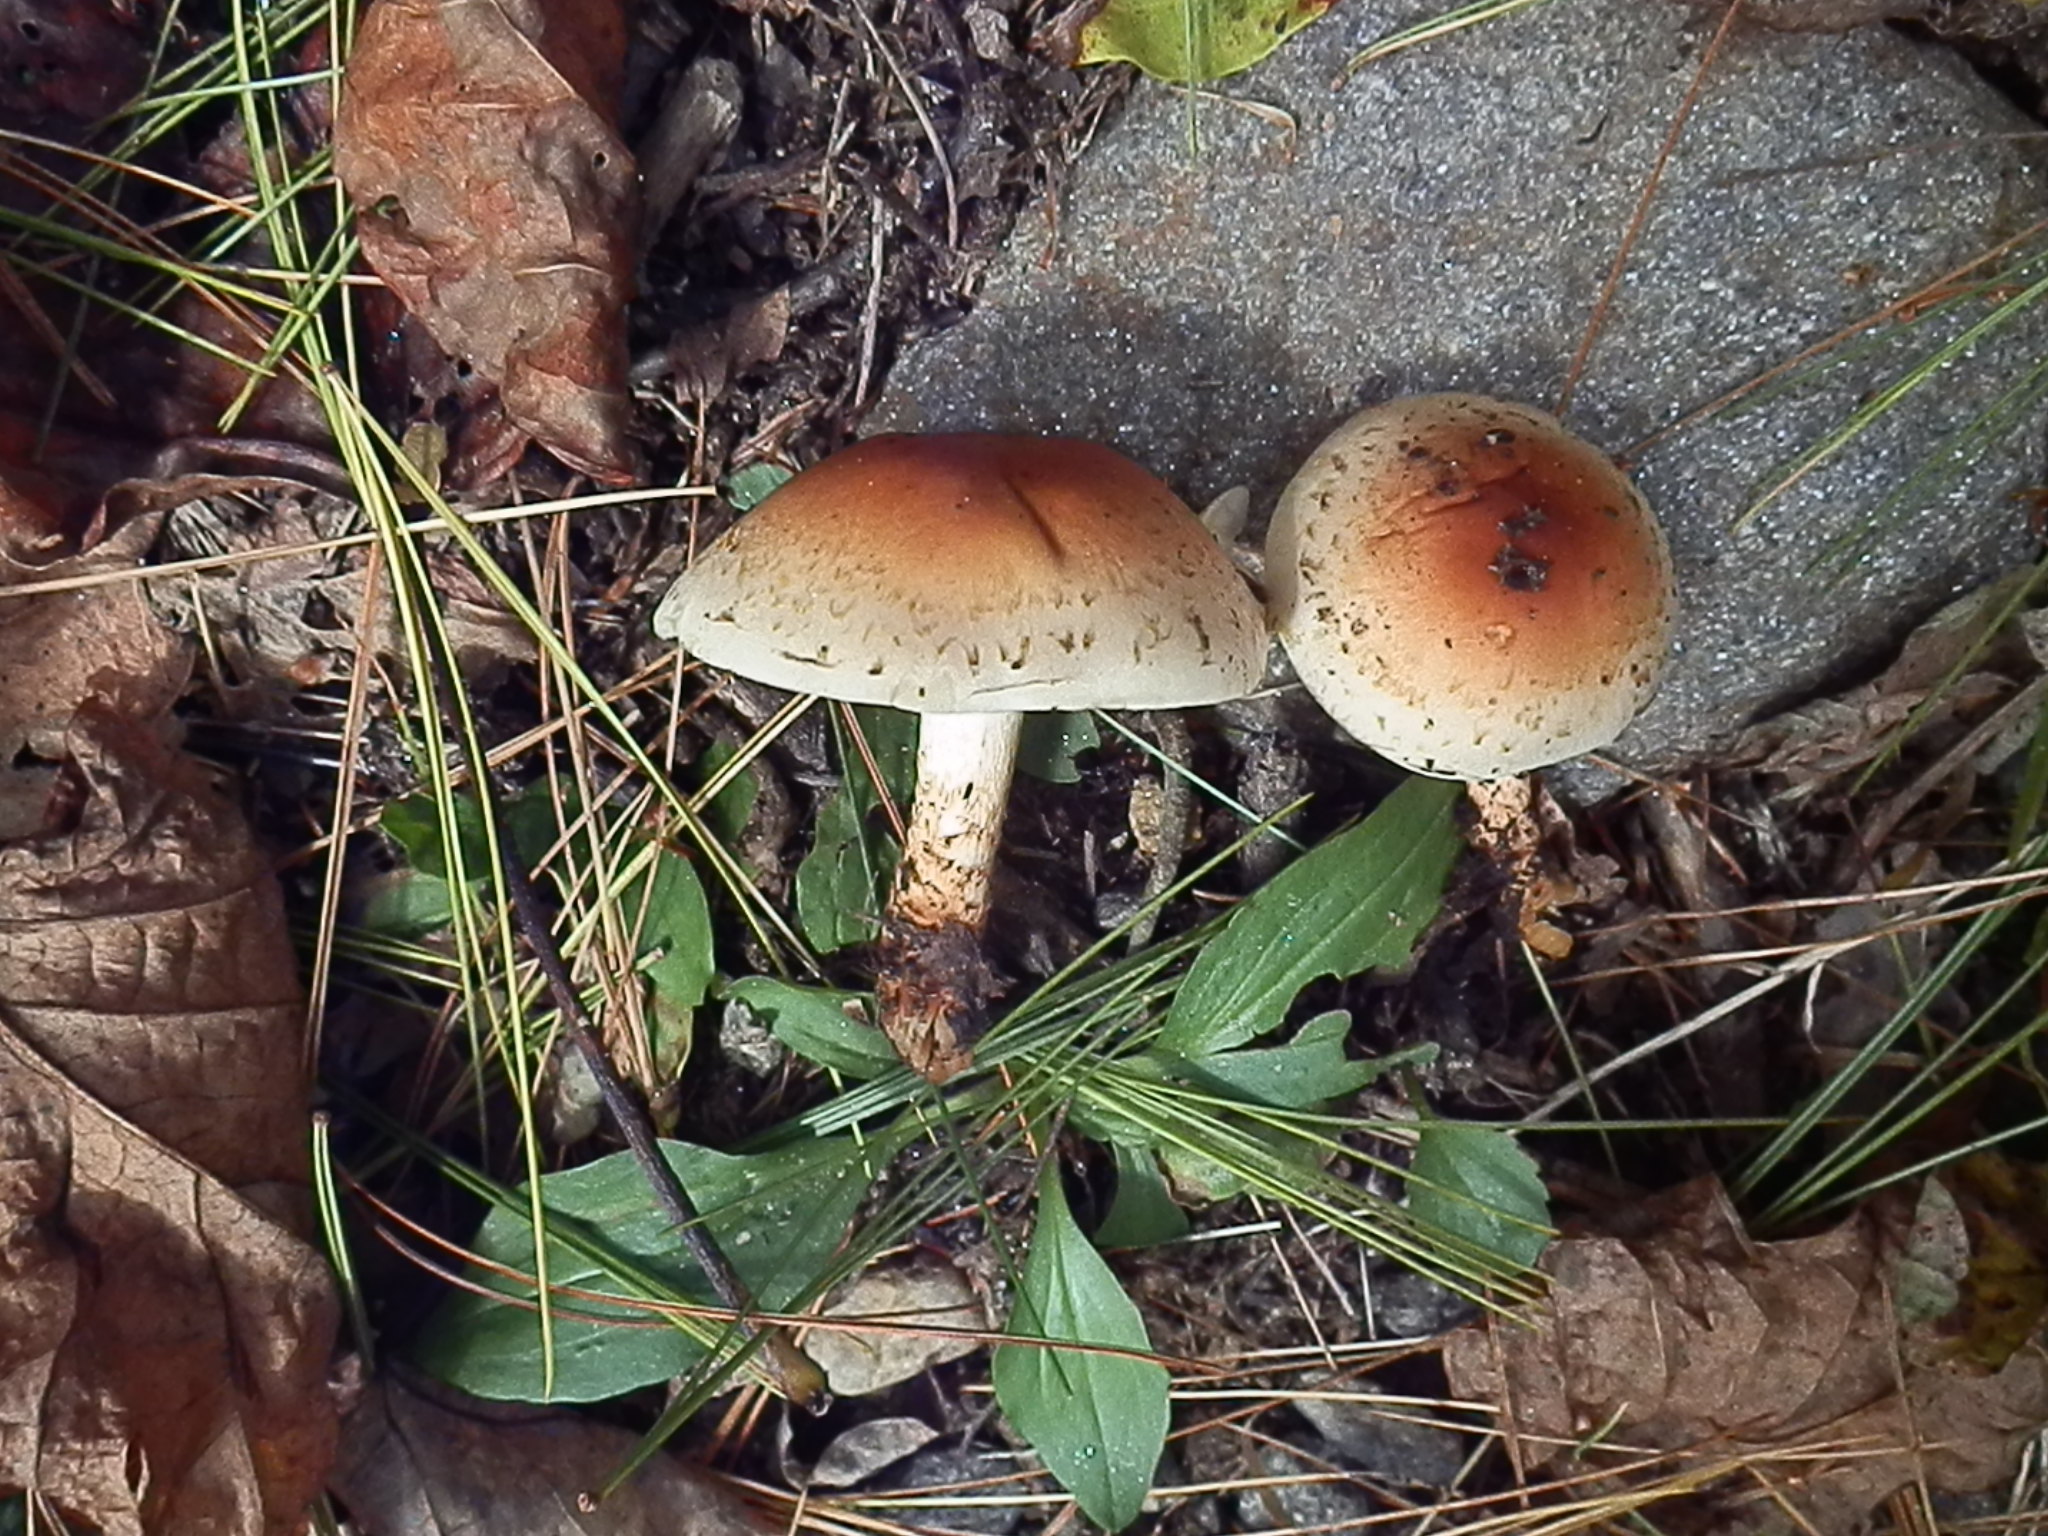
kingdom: Fungi
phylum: Basidiomycota
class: Agaricomycetes
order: Agaricales
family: Strophariaceae
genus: Hypholoma
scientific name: Hypholoma lateritium
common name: Brick caps
